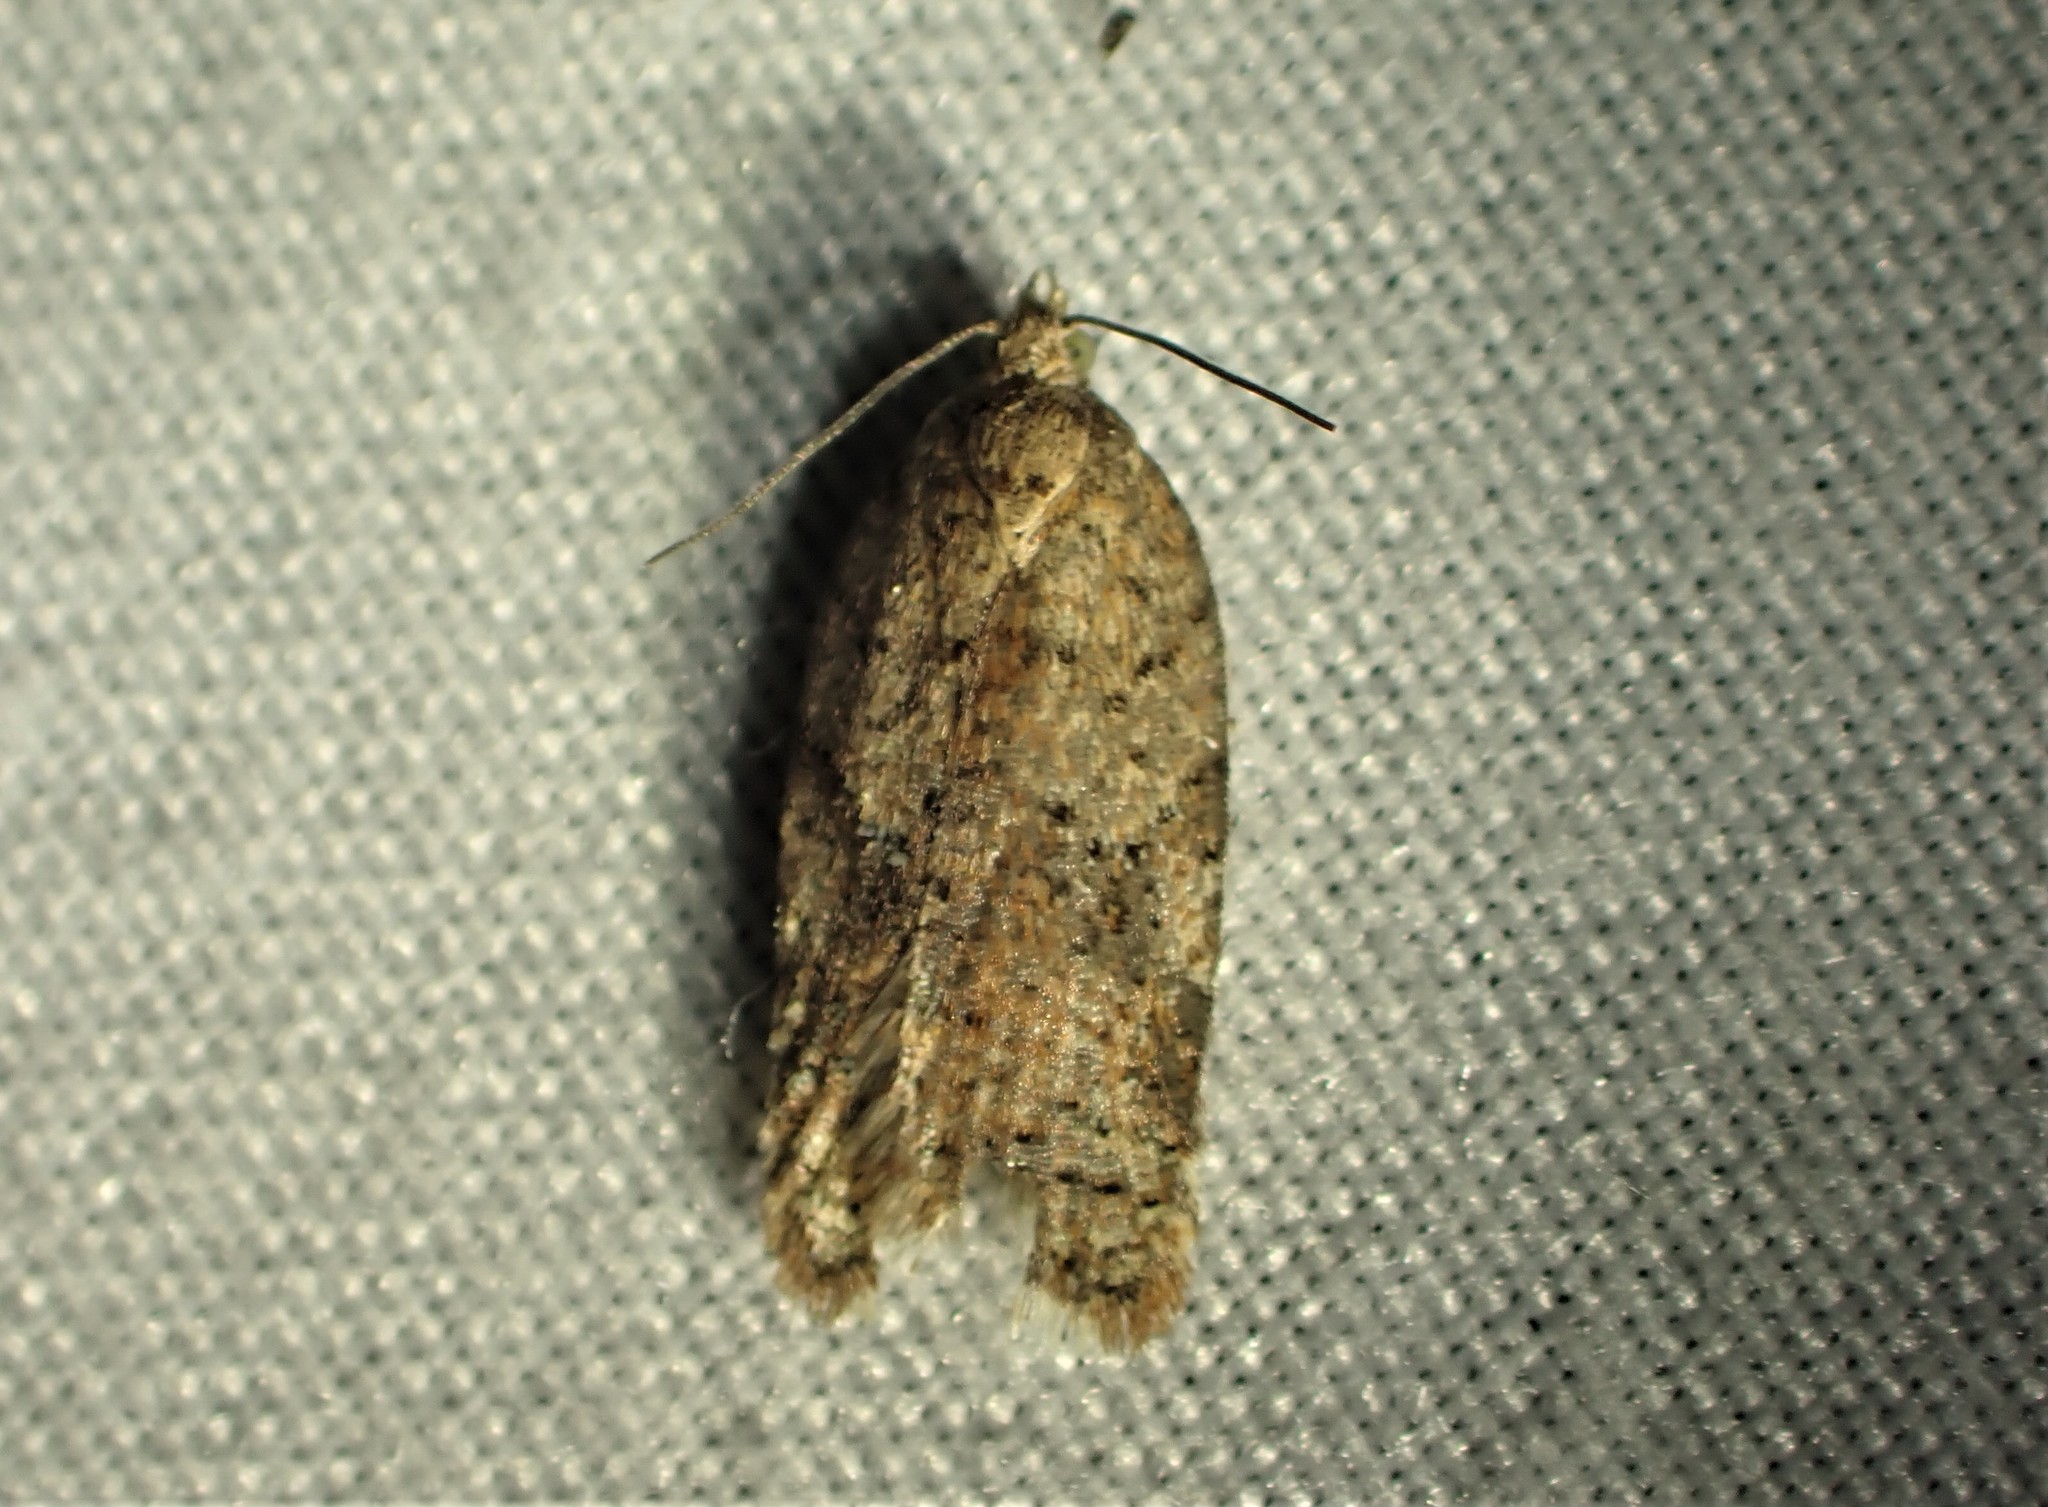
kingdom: Animalia
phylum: Arthropoda
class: Insecta
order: Lepidoptera
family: Tortricidae
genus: Acleris
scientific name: Acleris schalleriana
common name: Viburnum button
